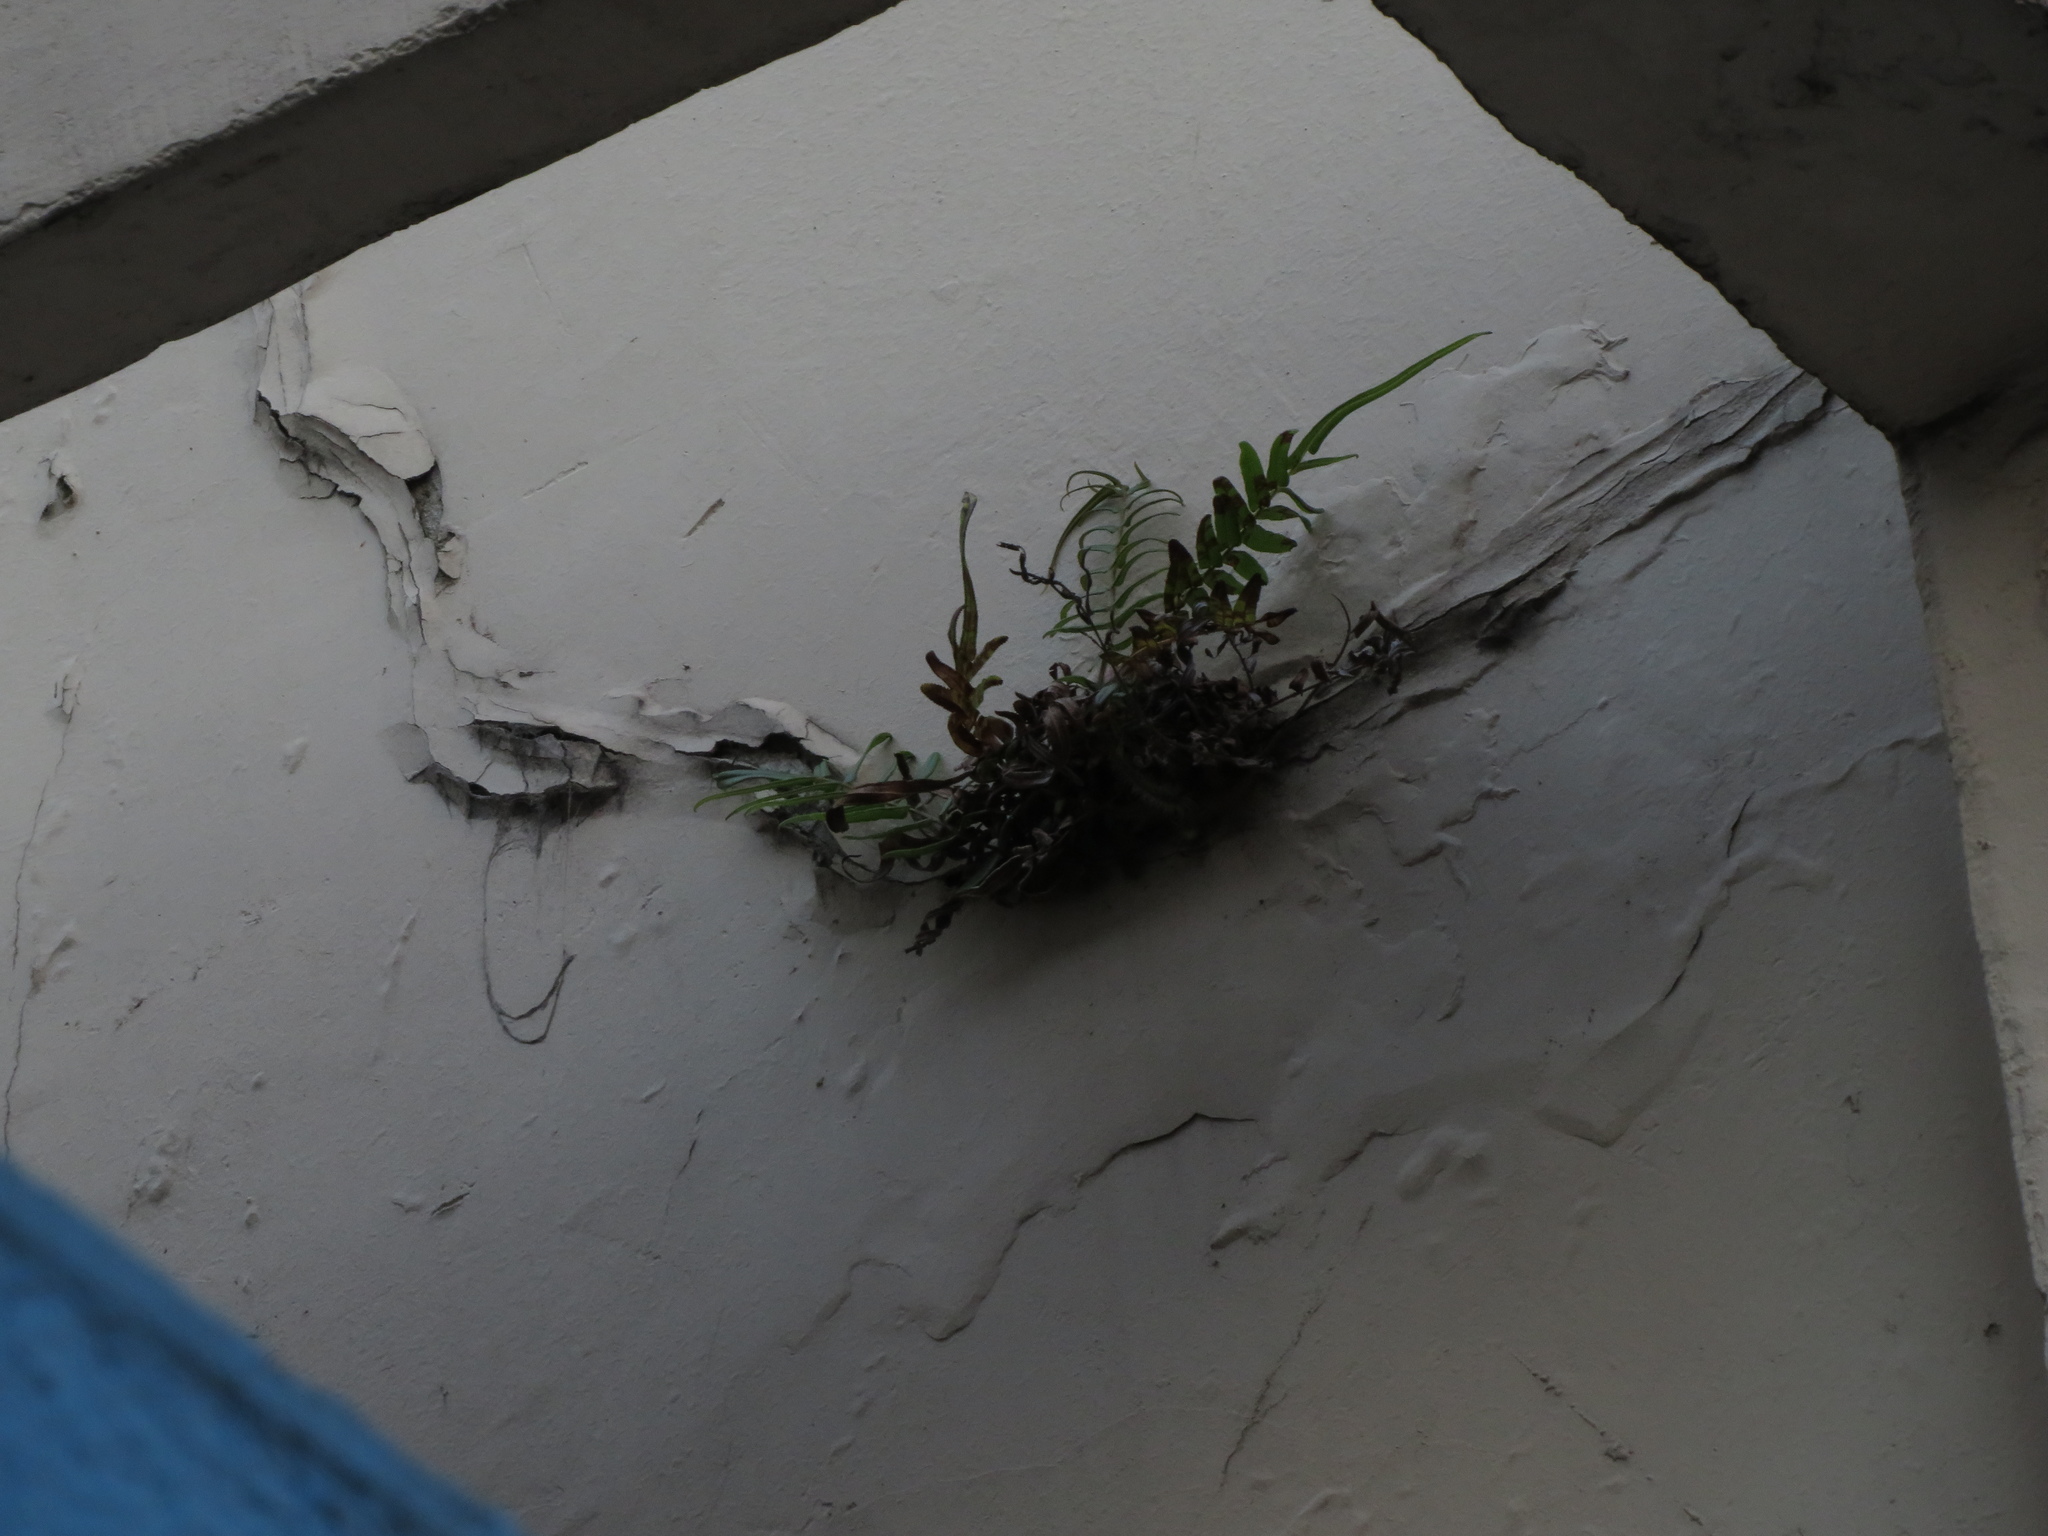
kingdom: Plantae
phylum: Tracheophyta
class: Polypodiopsida
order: Polypodiales
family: Pteridaceae
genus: Pteris
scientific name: Pteris vittata
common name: Ladder brake
